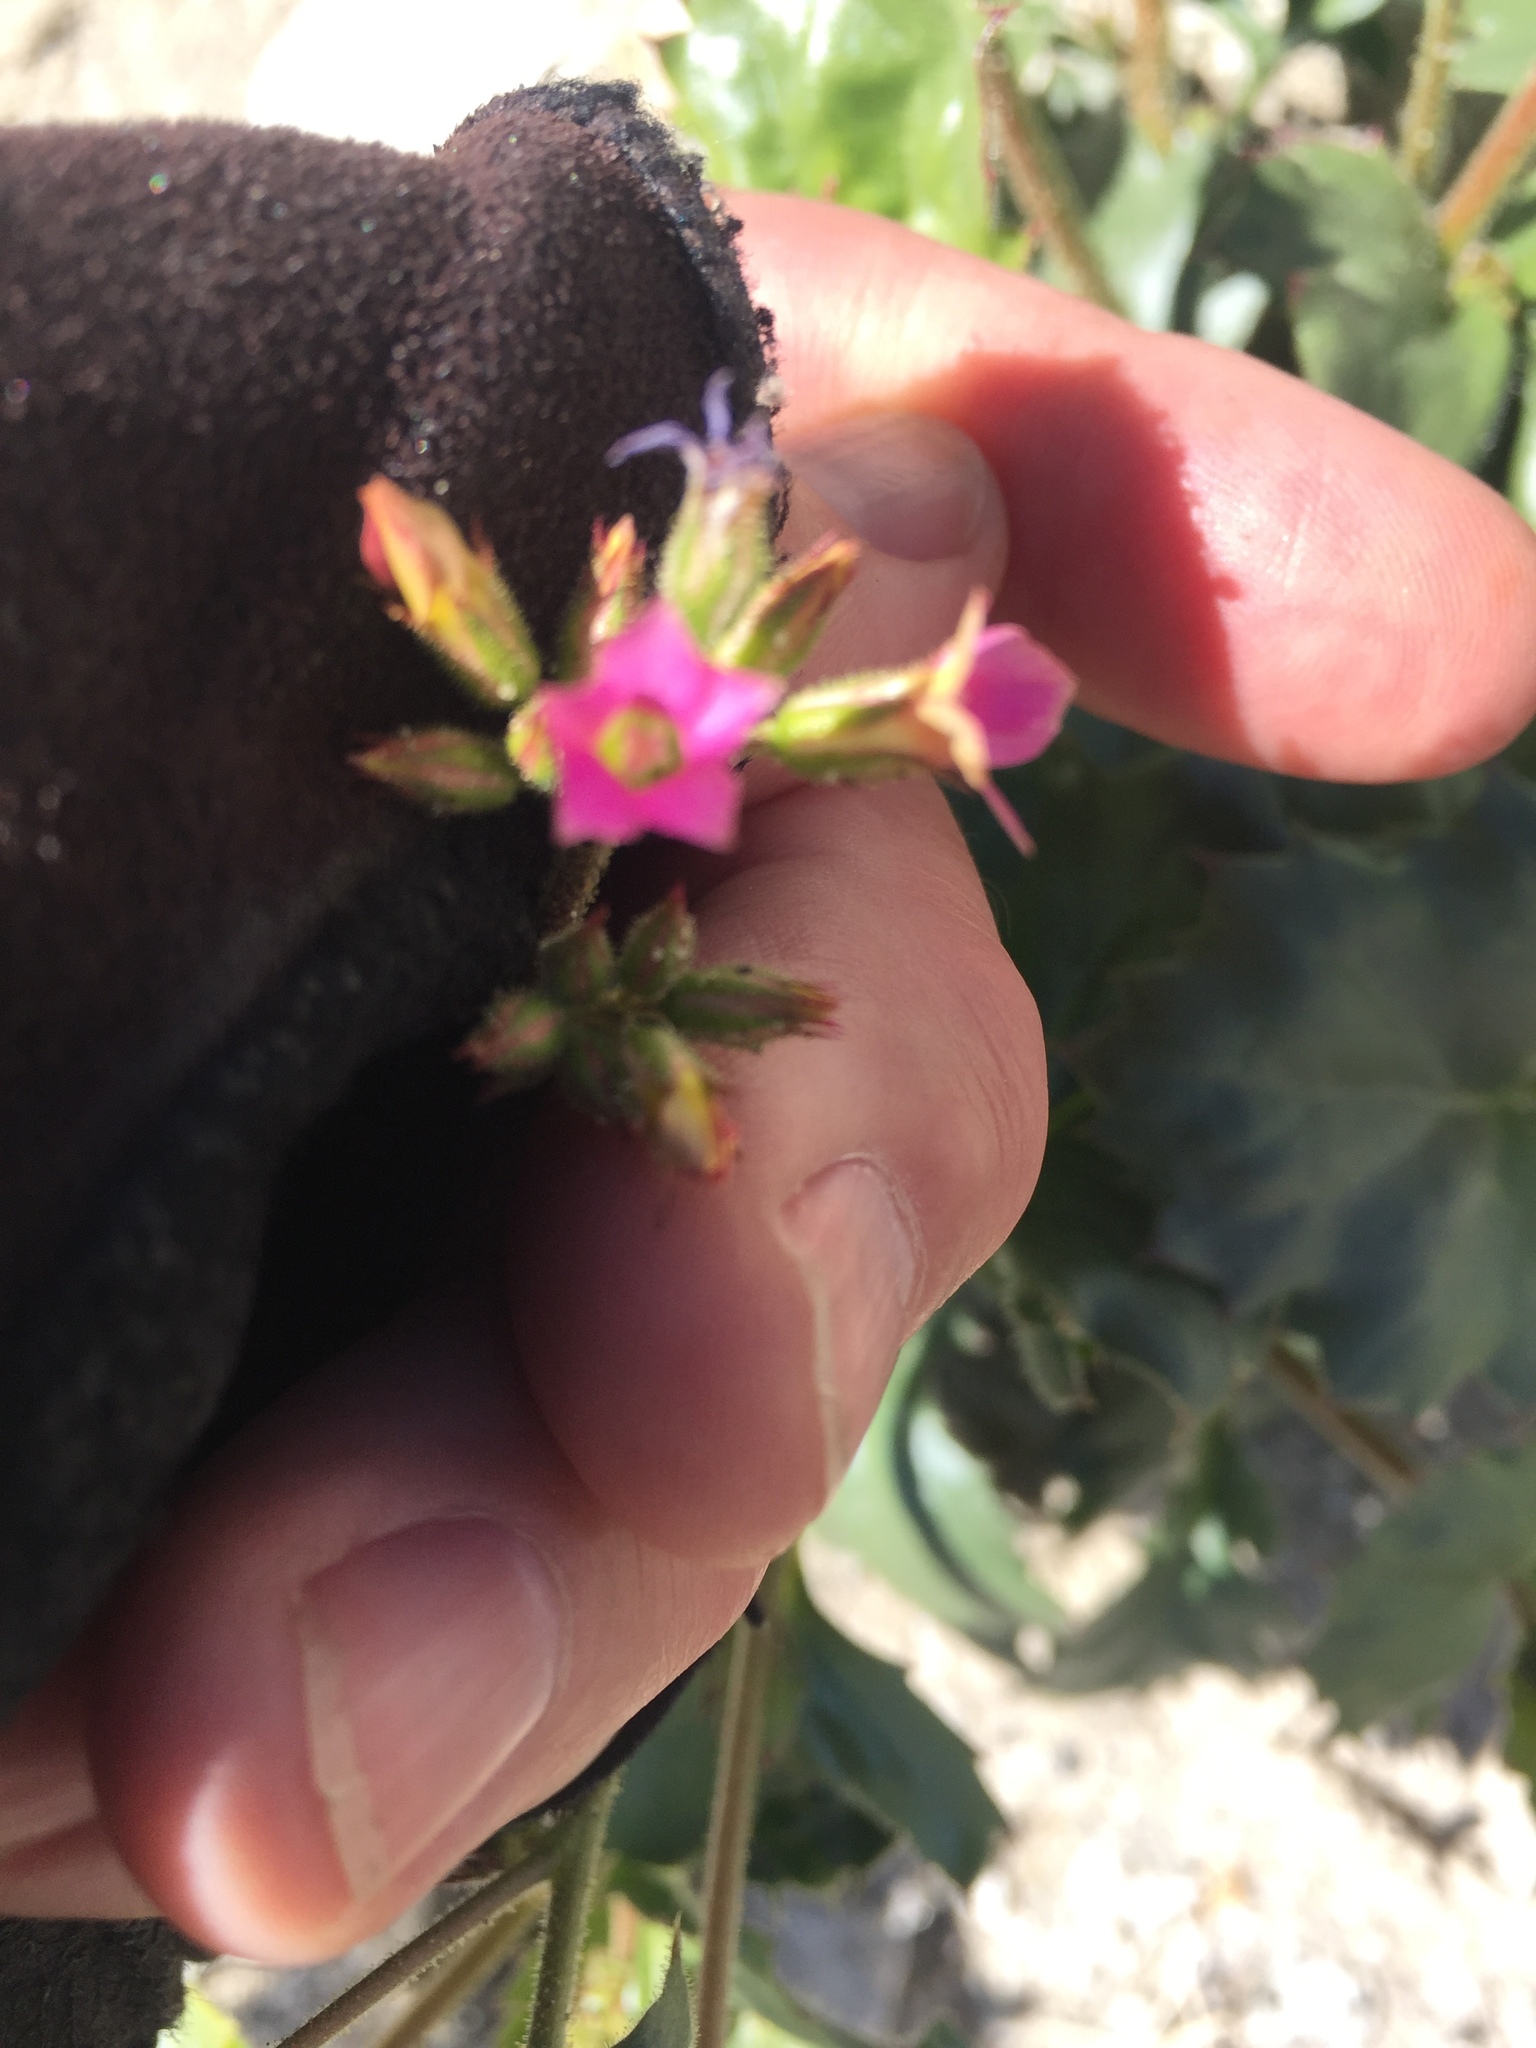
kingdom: Plantae
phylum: Tracheophyta
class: Magnoliopsida
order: Ericales
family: Polemoniaceae
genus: Aliciella
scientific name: Aliciella latifolia
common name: Broad-leaf gilia
